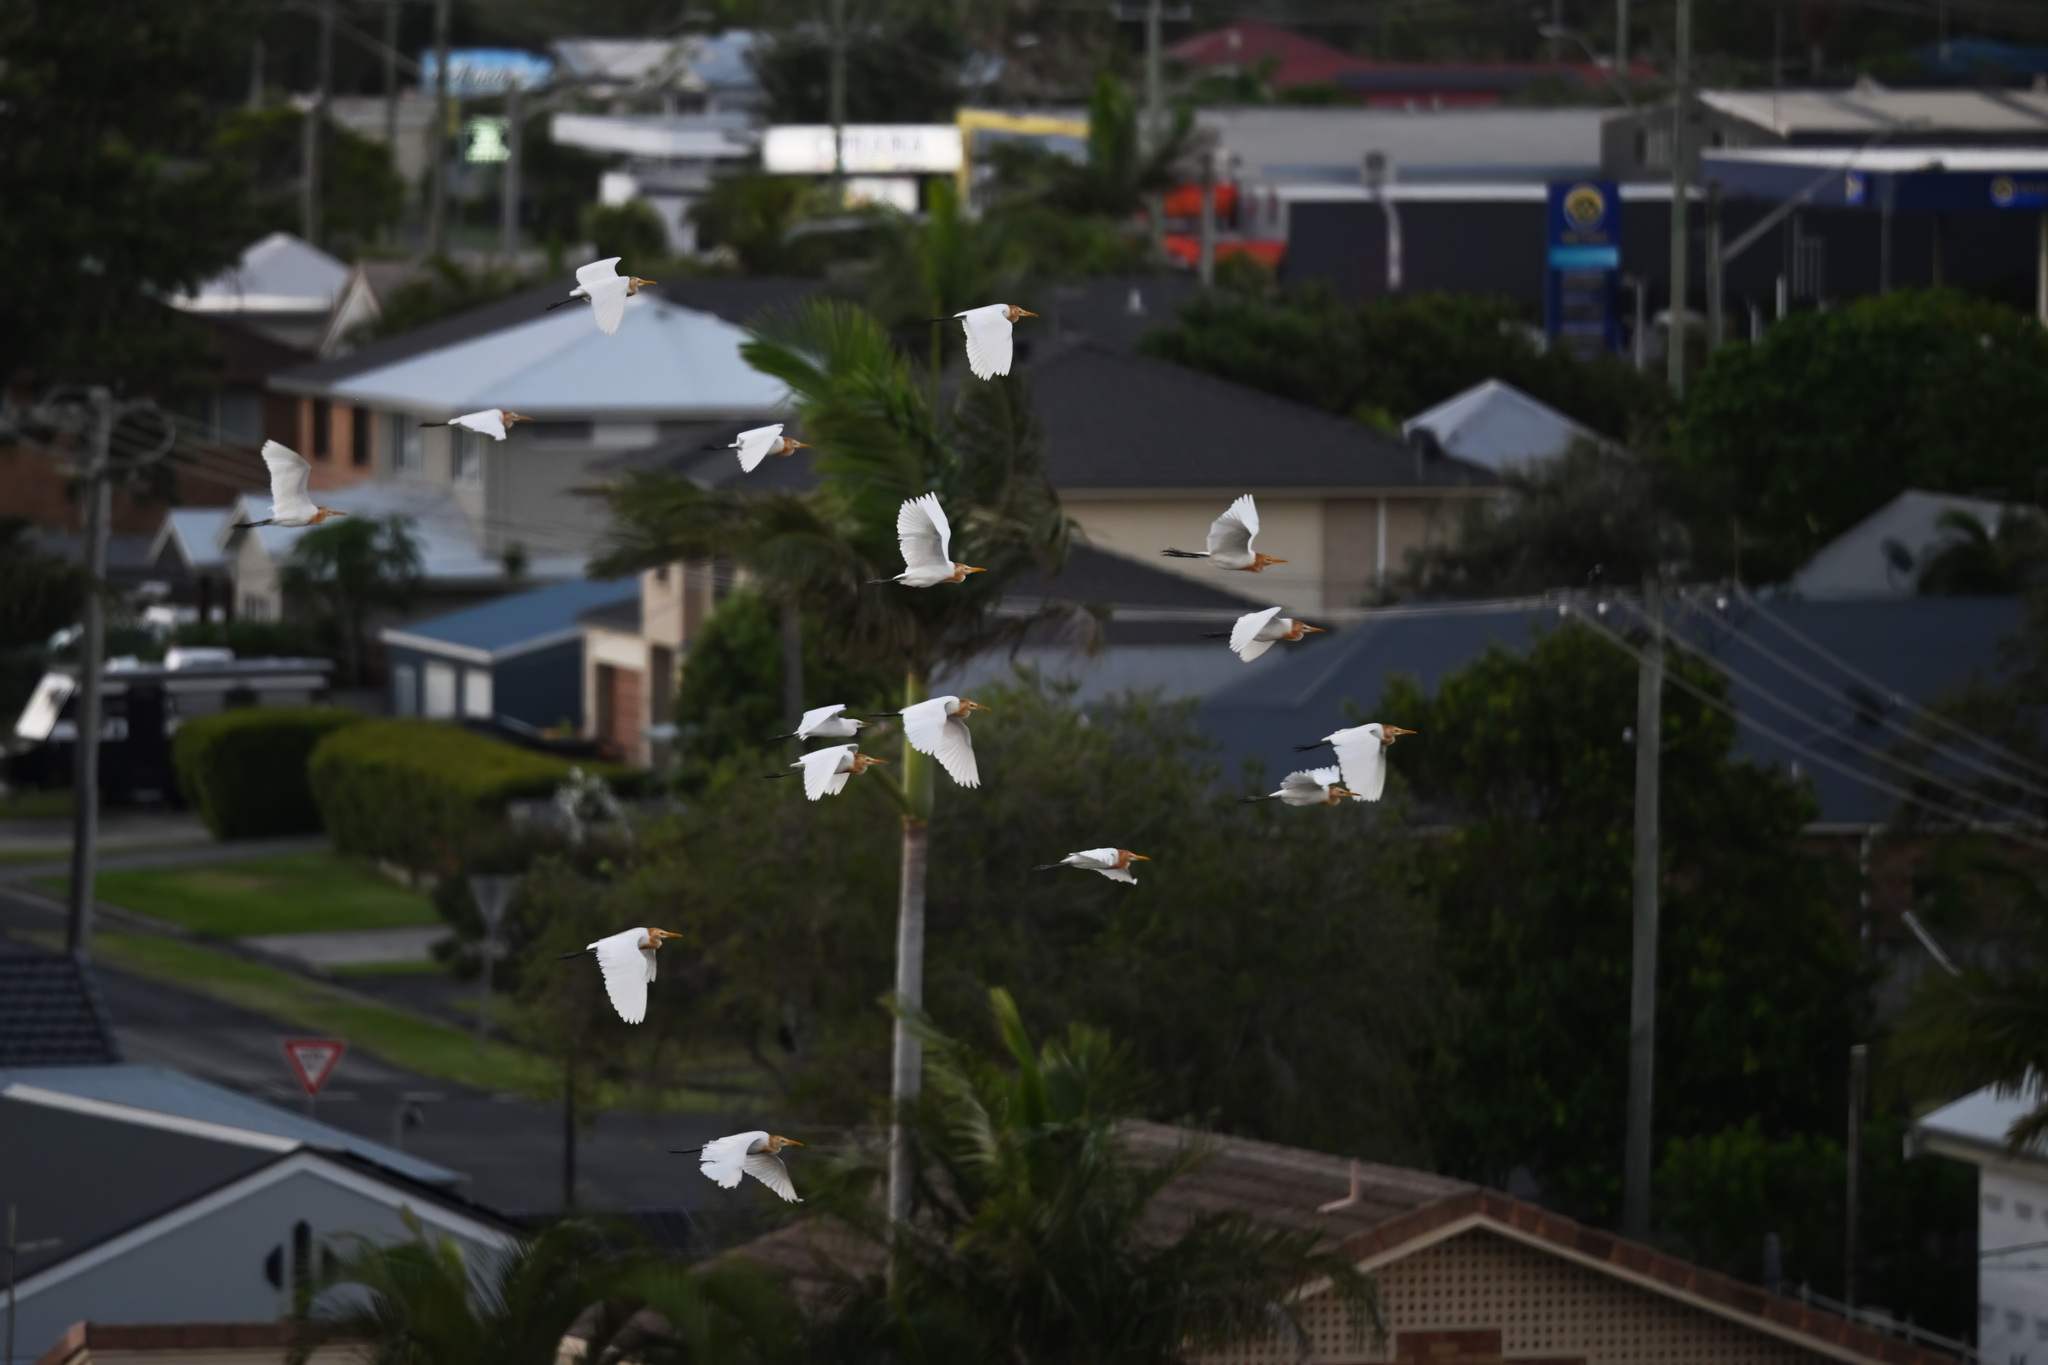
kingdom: Animalia
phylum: Chordata
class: Aves
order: Pelecaniformes
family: Ardeidae
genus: Bubulcus
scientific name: Bubulcus coromandus
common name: Eastern cattle egret
